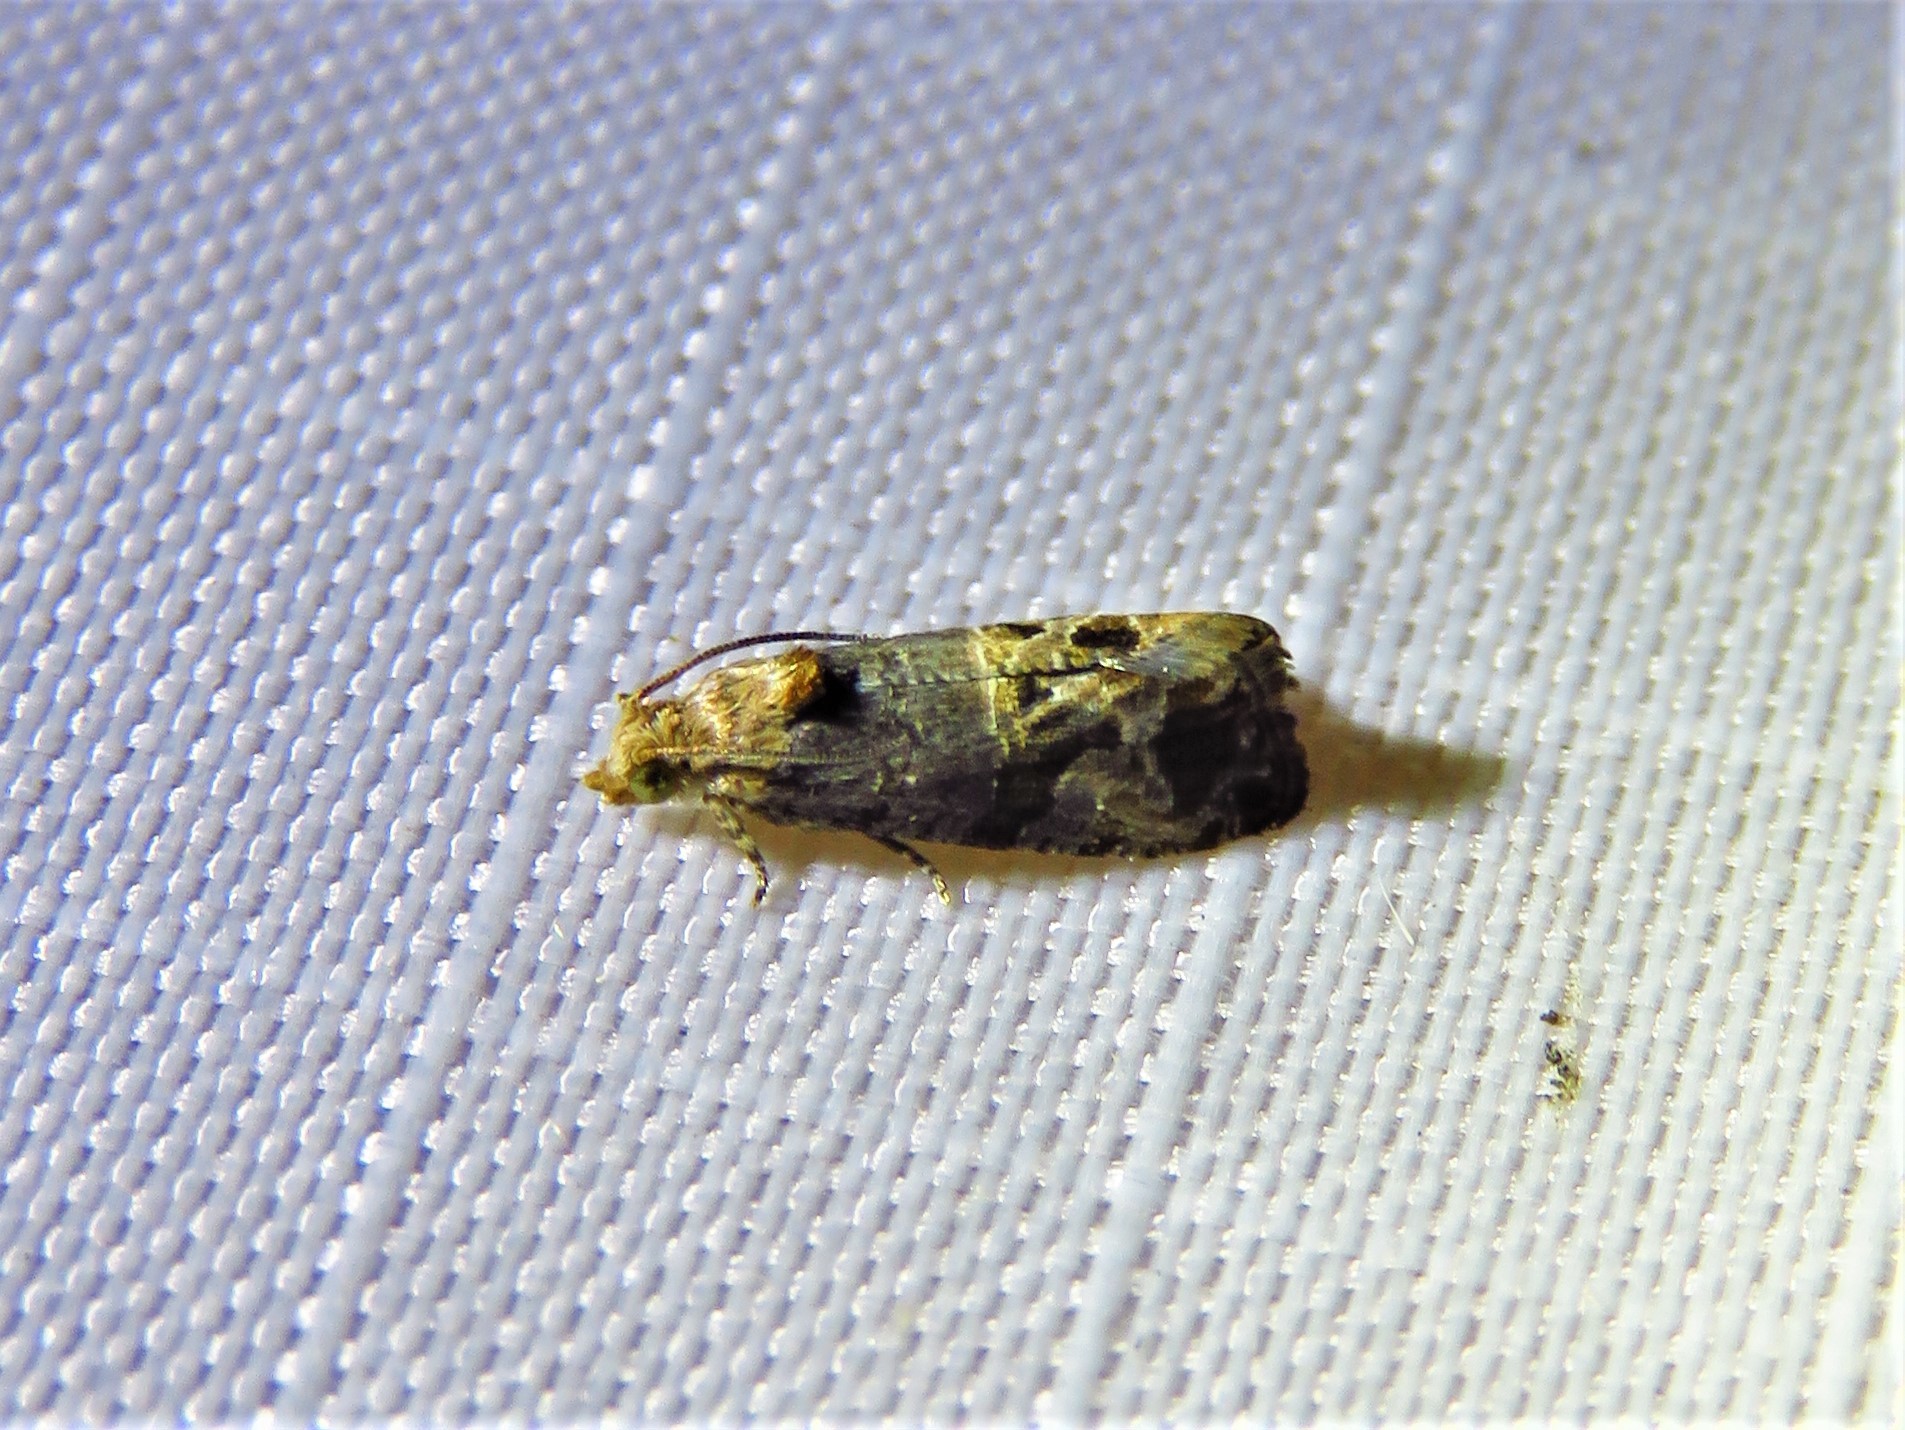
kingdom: Animalia
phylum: Arthropoda
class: Insecta
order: Lepidoptera
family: Tortricidae
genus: Paralobesia
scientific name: Paralobesia viteana
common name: Grape berry moth
